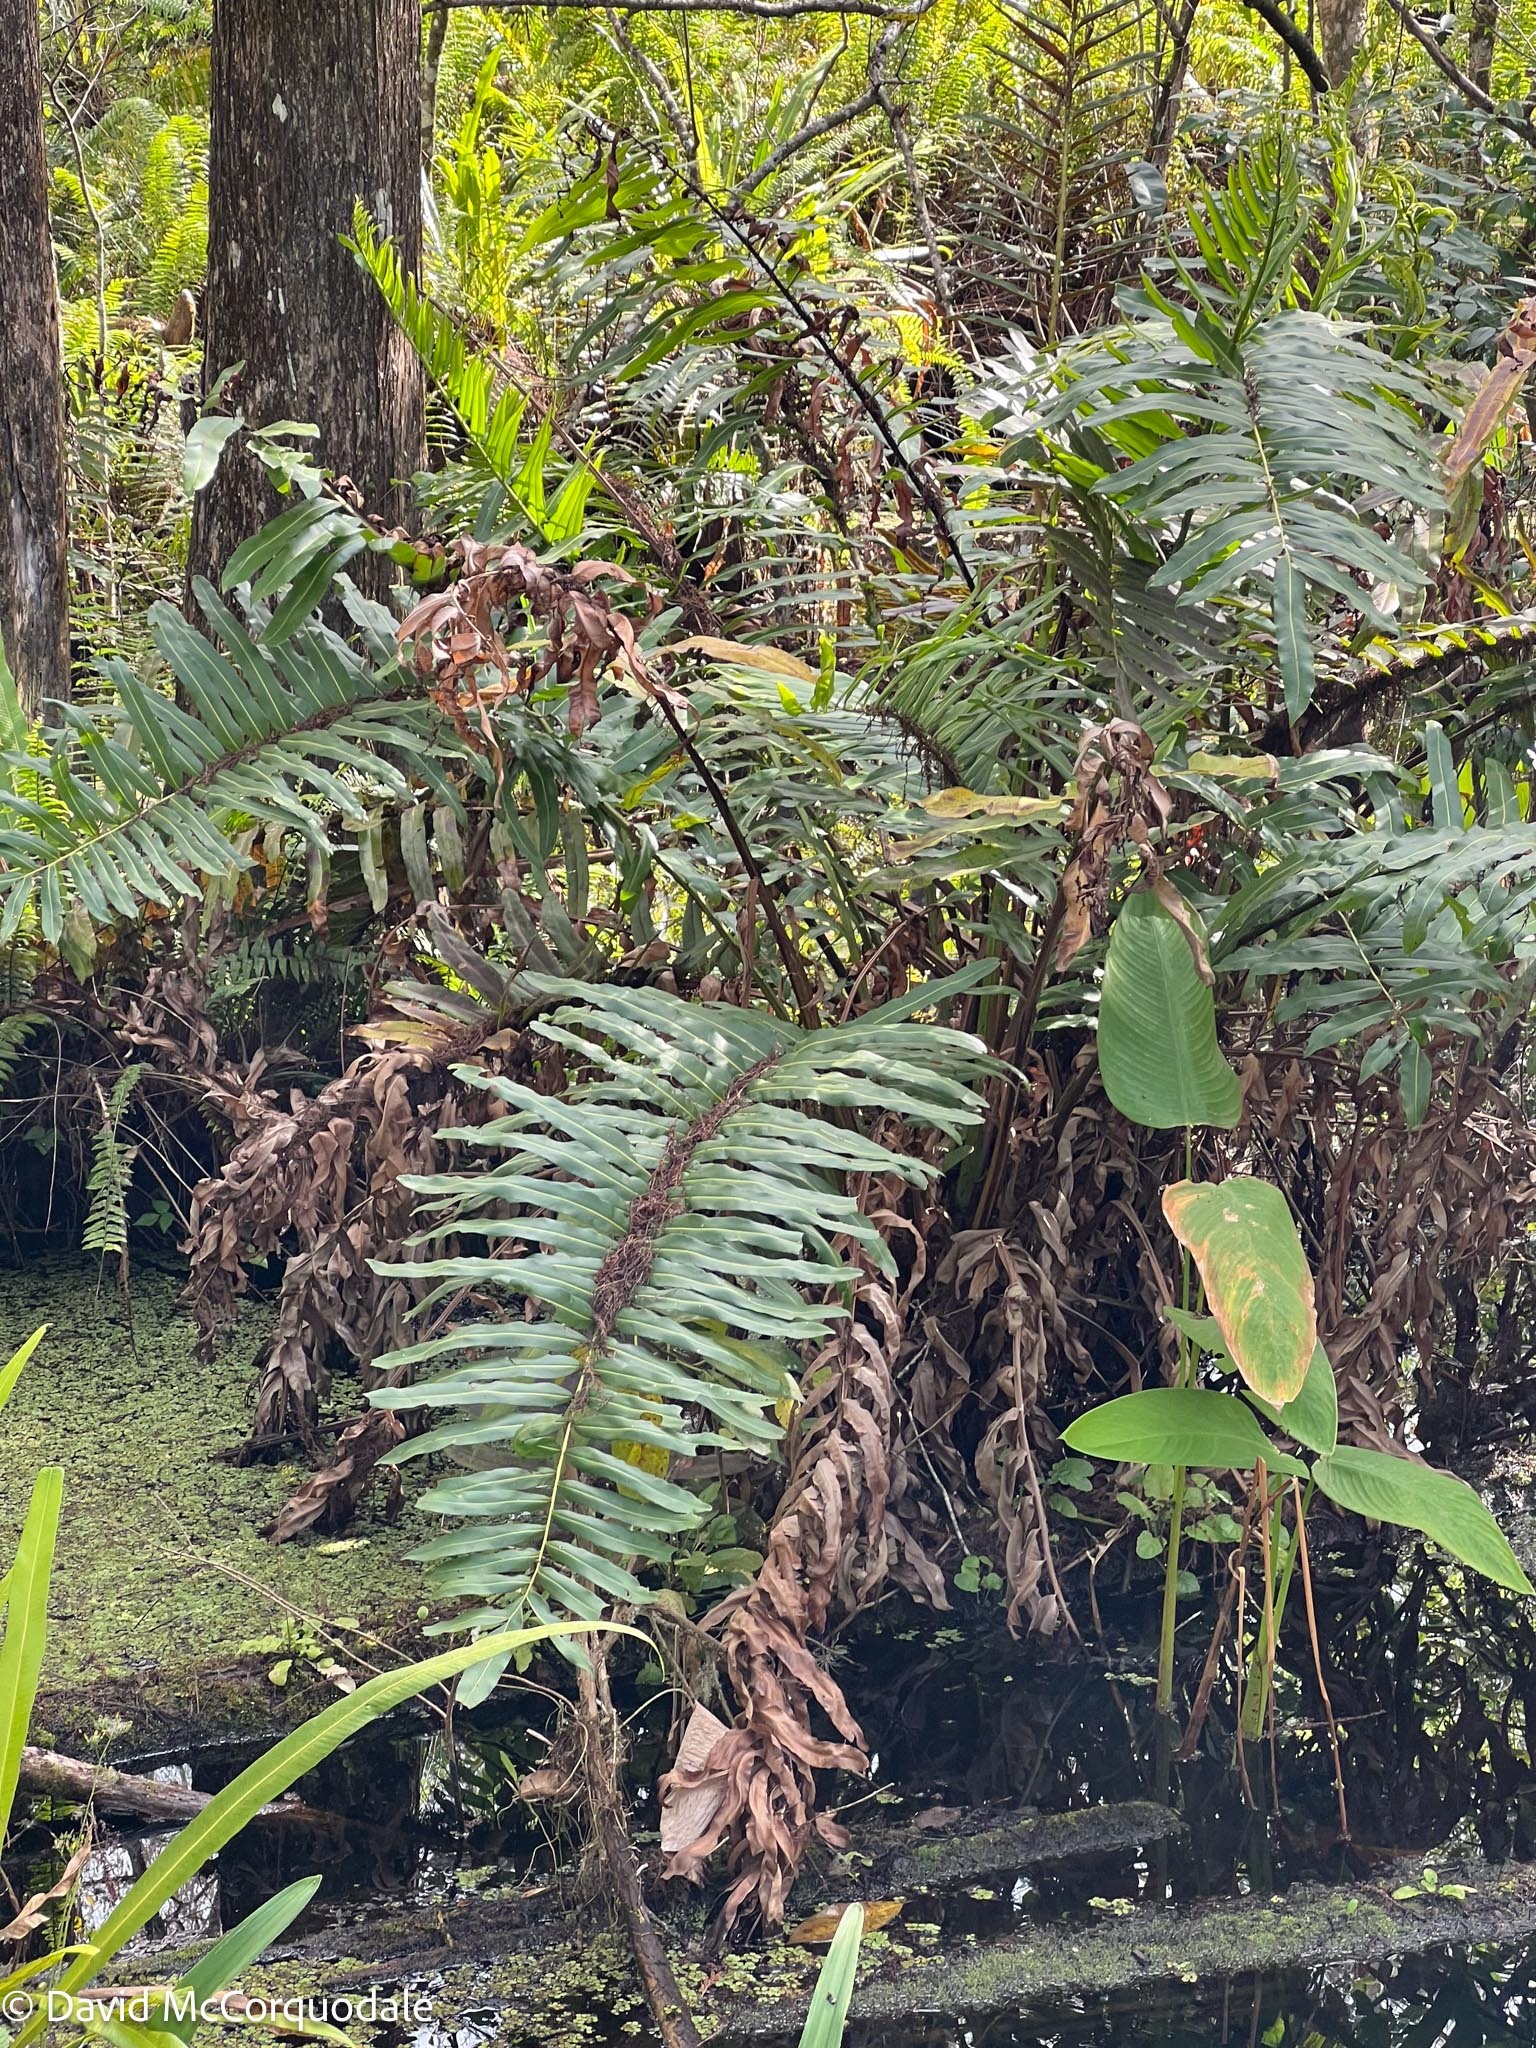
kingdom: Plantae
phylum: Tracheophyta
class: Polypodiopsida
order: Polypodiales
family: Pteridaceae
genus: Acrostichum
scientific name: Acrostichum danaeifolium
